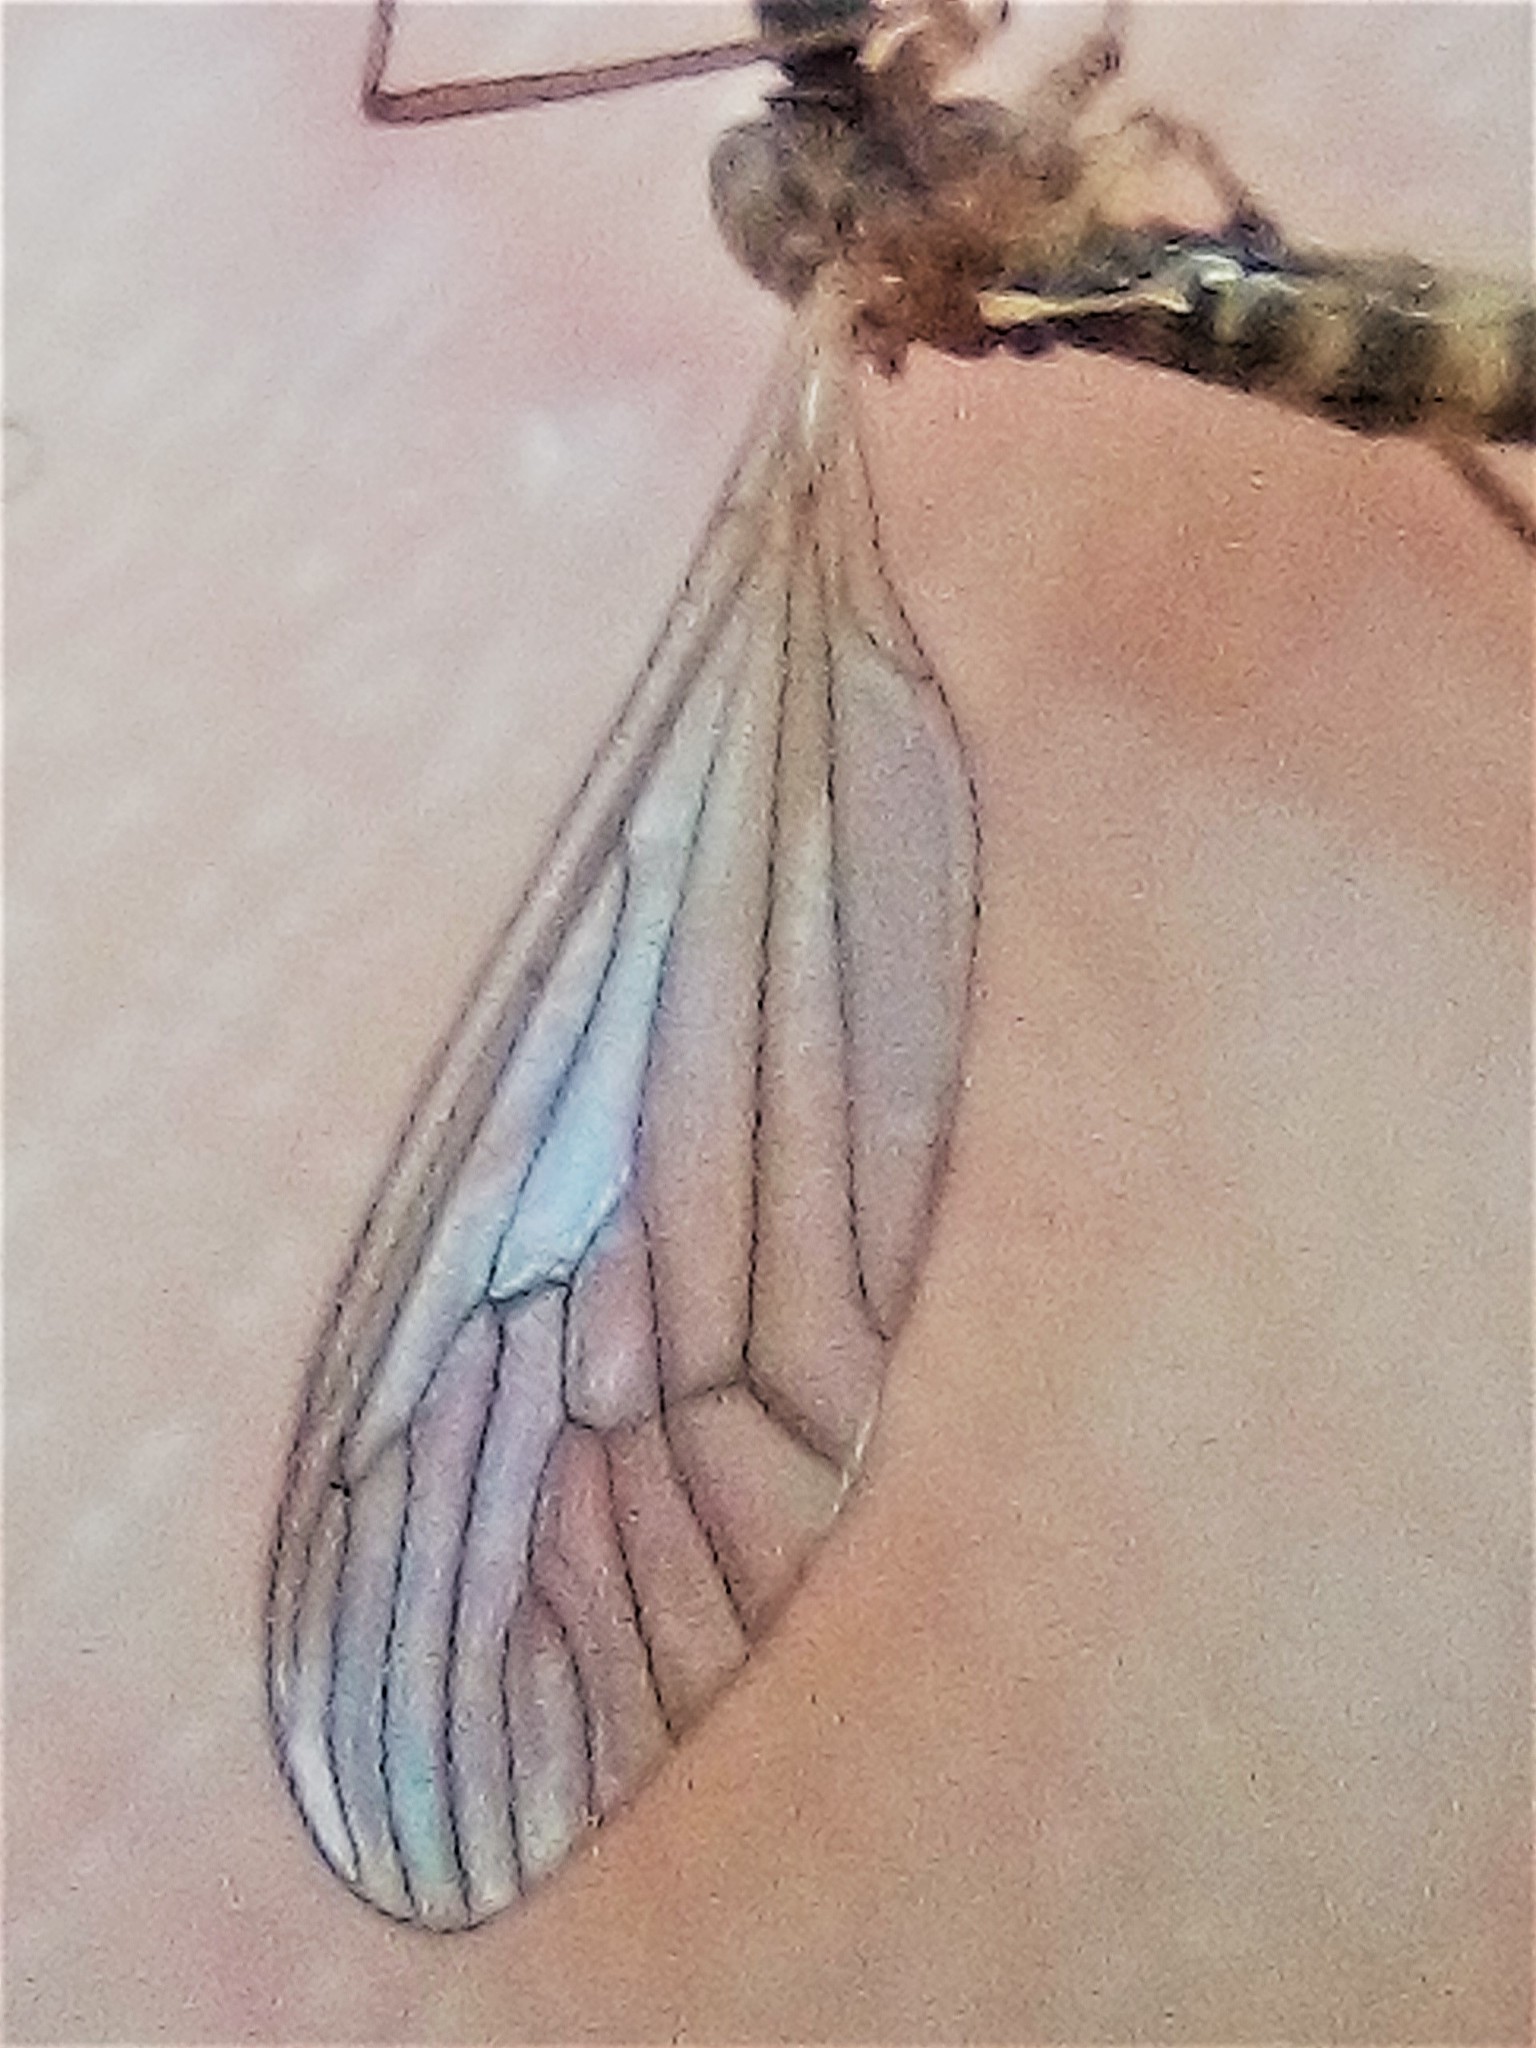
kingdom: Animalia
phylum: Arthropoda
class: Insecta
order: Diptera
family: Trichoceridae
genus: Trichocera
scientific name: Trichocera annulata
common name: Winter gnat
